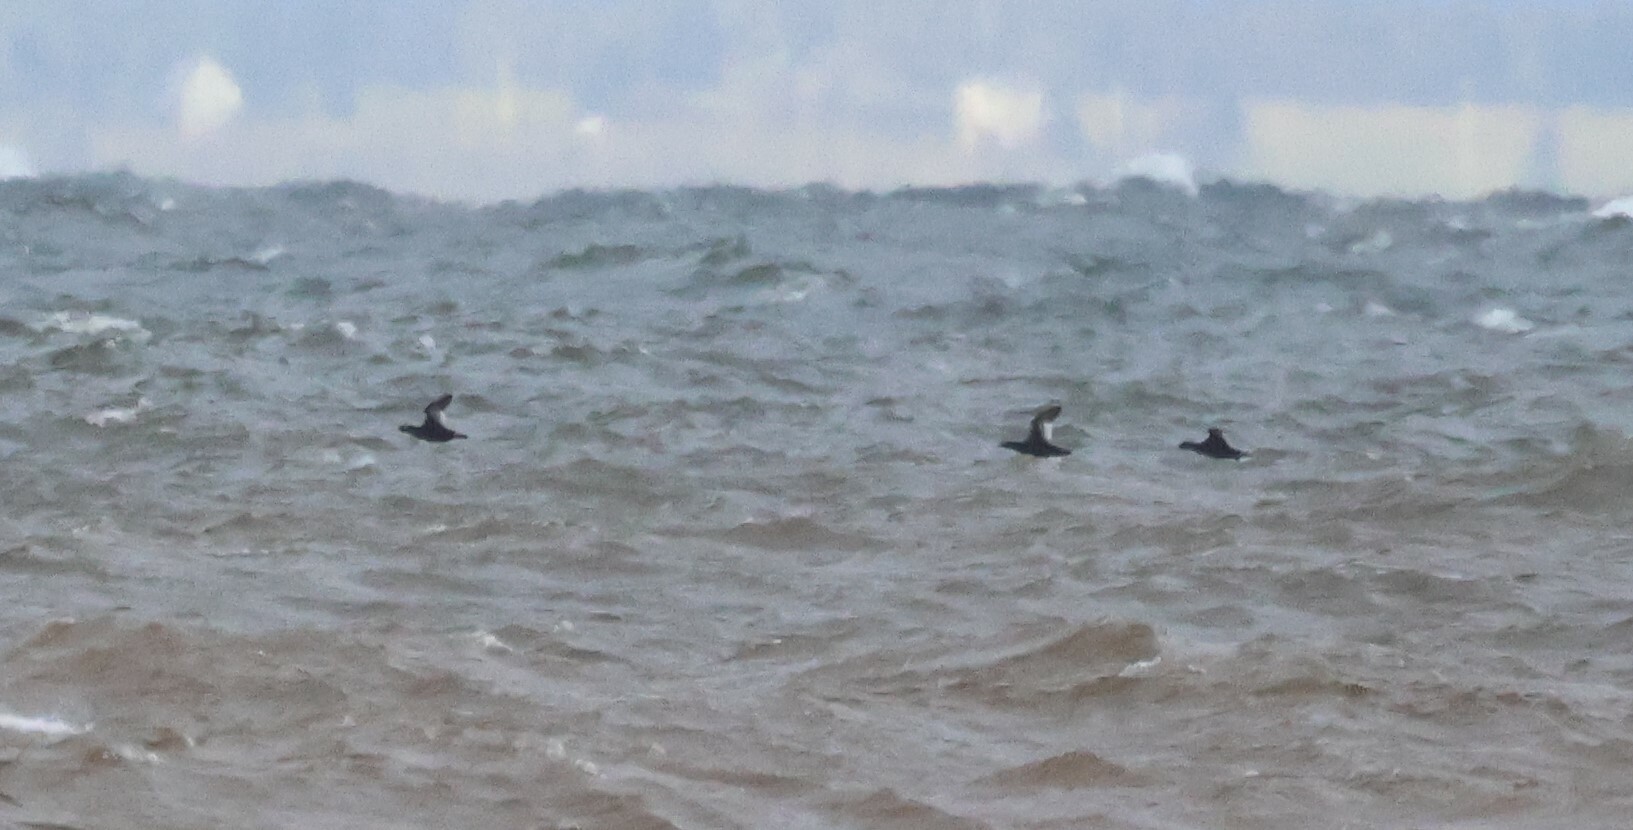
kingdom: Animalia
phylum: Chordata
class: Aves
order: Anseriformes
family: Anatidae
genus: Melanitta
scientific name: Melanitta deglandi
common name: White-winged scoter
